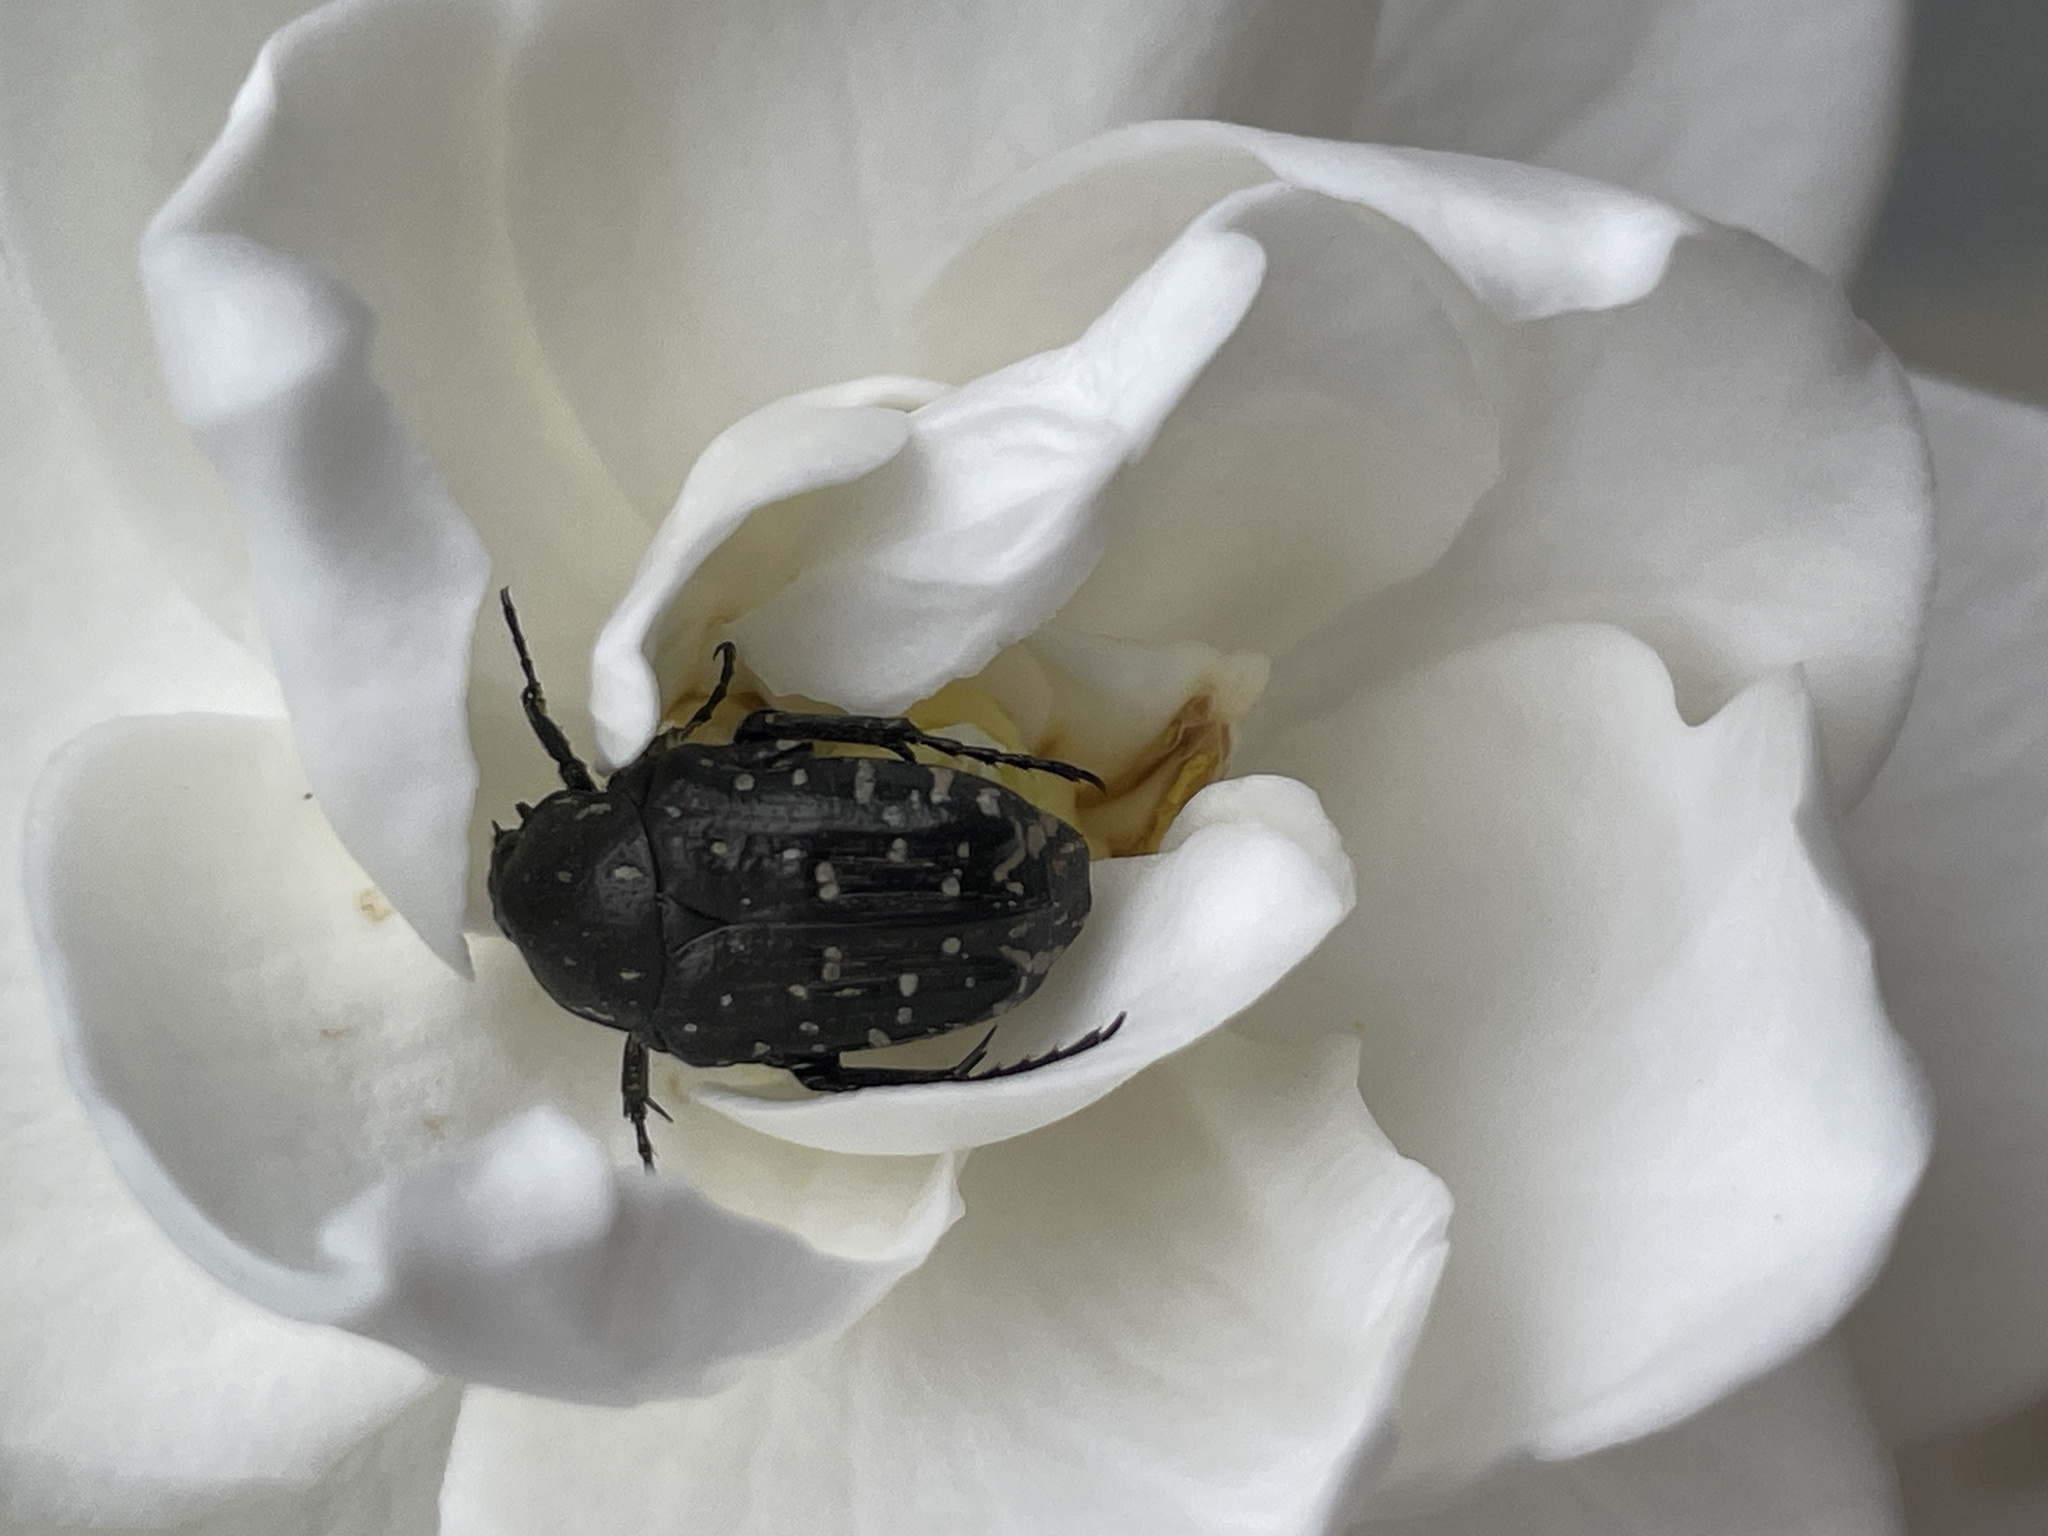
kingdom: Animalia
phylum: Arthropoda
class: Insecta
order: Coleoptera
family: Scarabaeidae
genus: Oxythyrea
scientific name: Oxythyrea funesta
